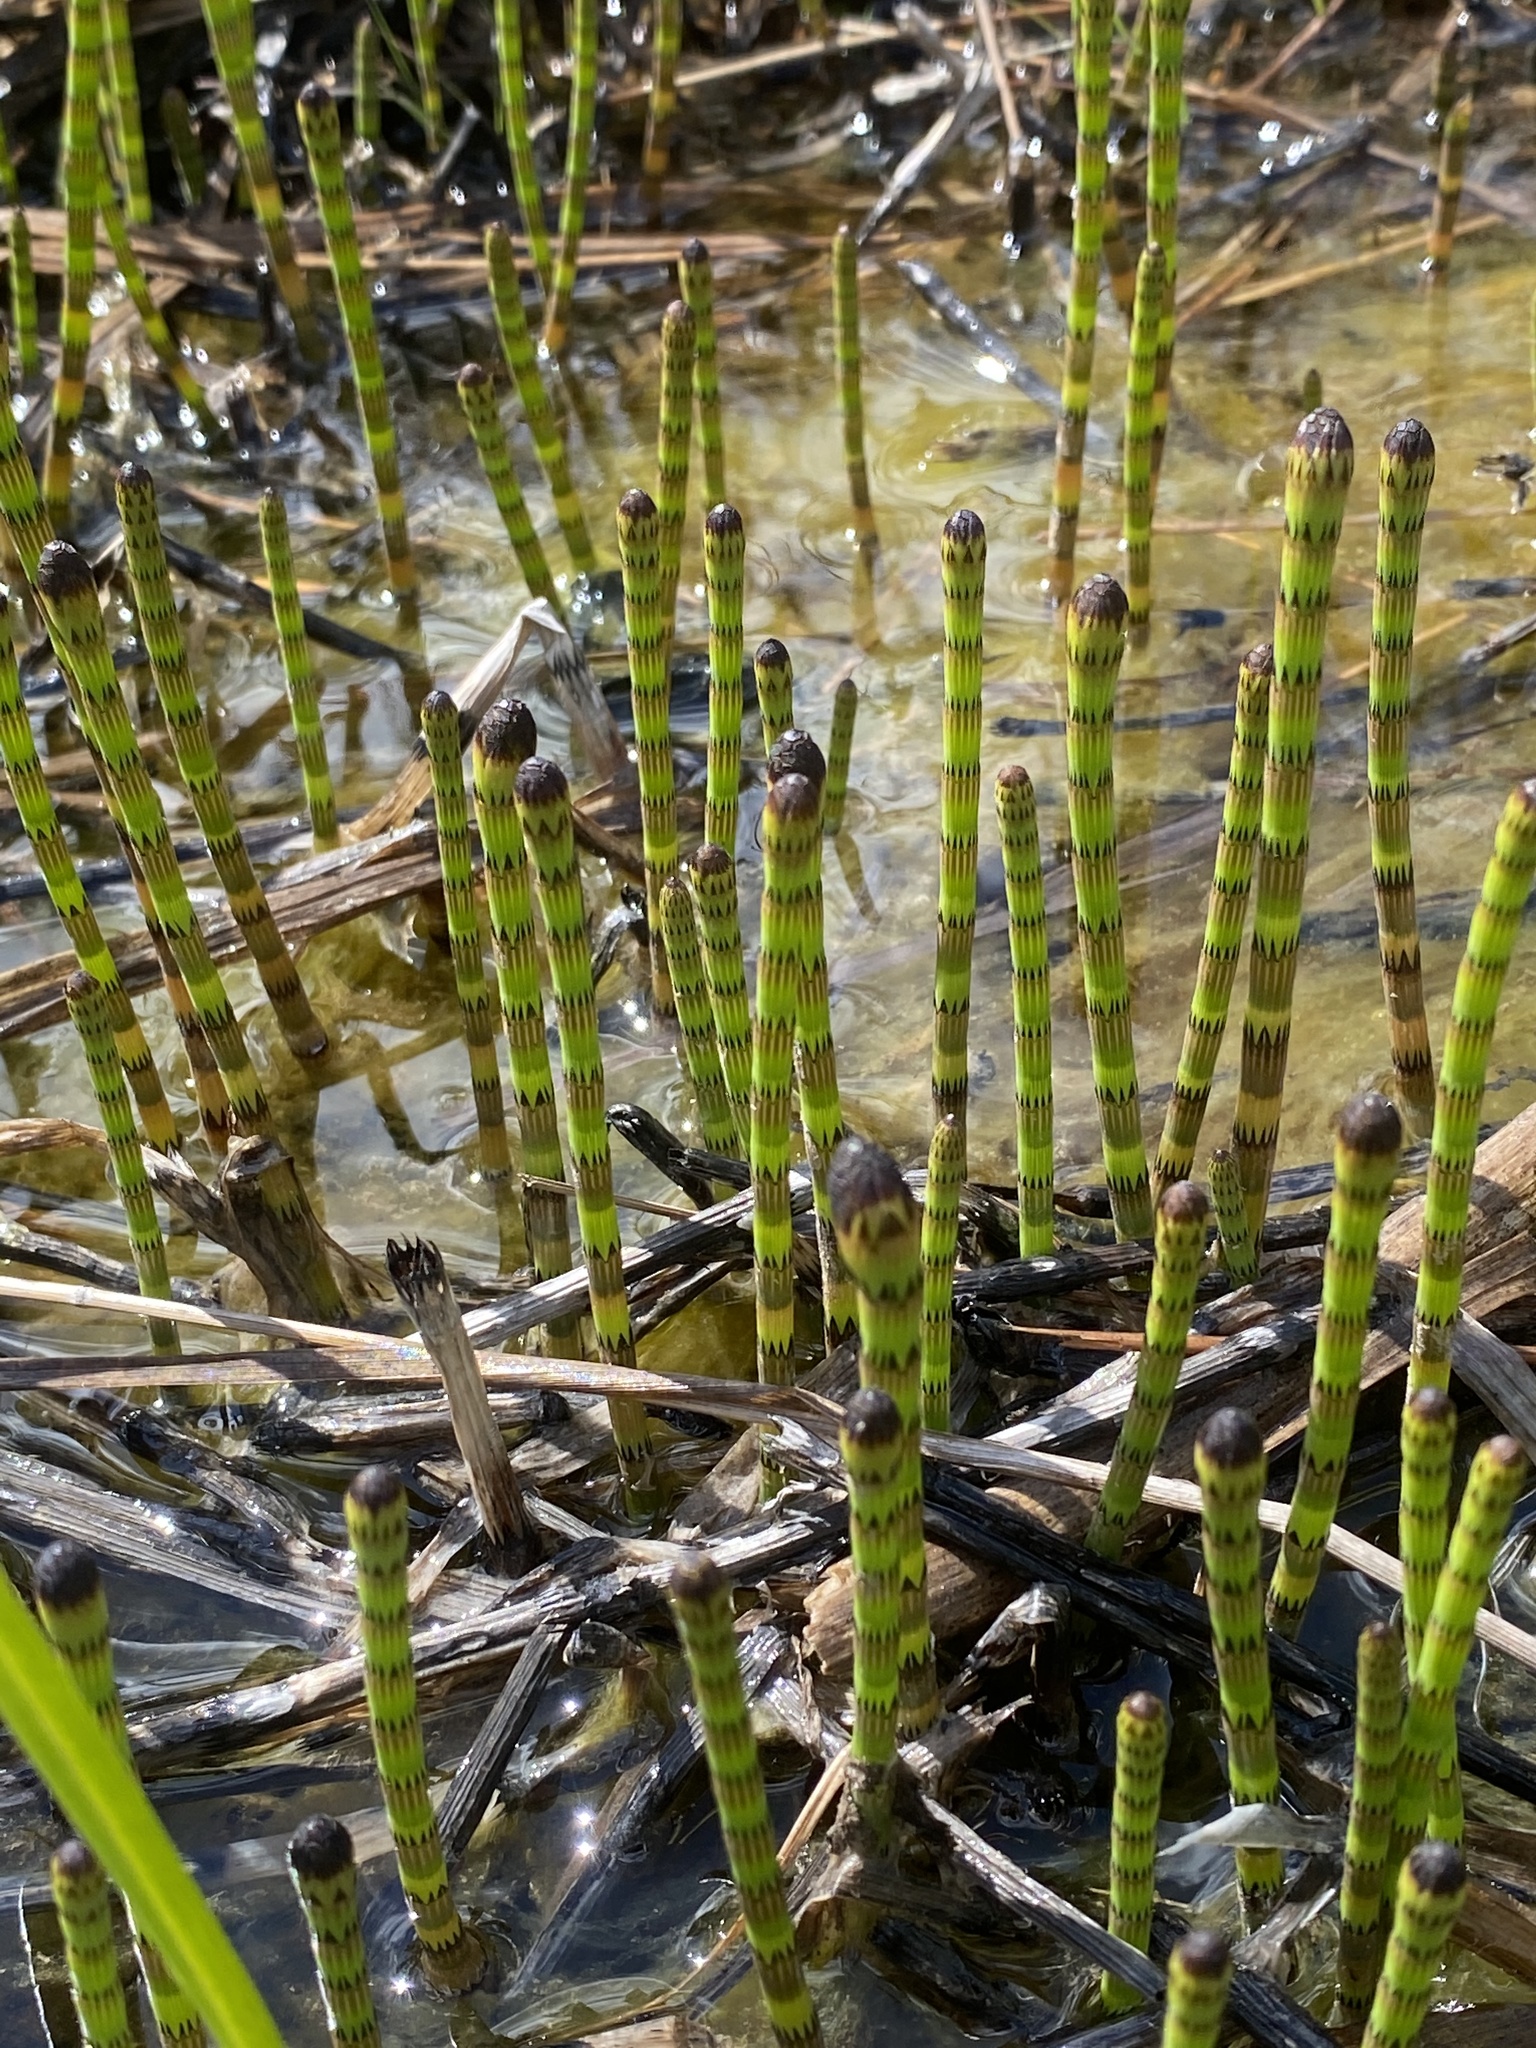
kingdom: Plantae
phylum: Tracheophyta
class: Polypodiopsida
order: Equisetales
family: Equisetaceae
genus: Equisetum
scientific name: Equisetum fluviatile
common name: Water horsetail
